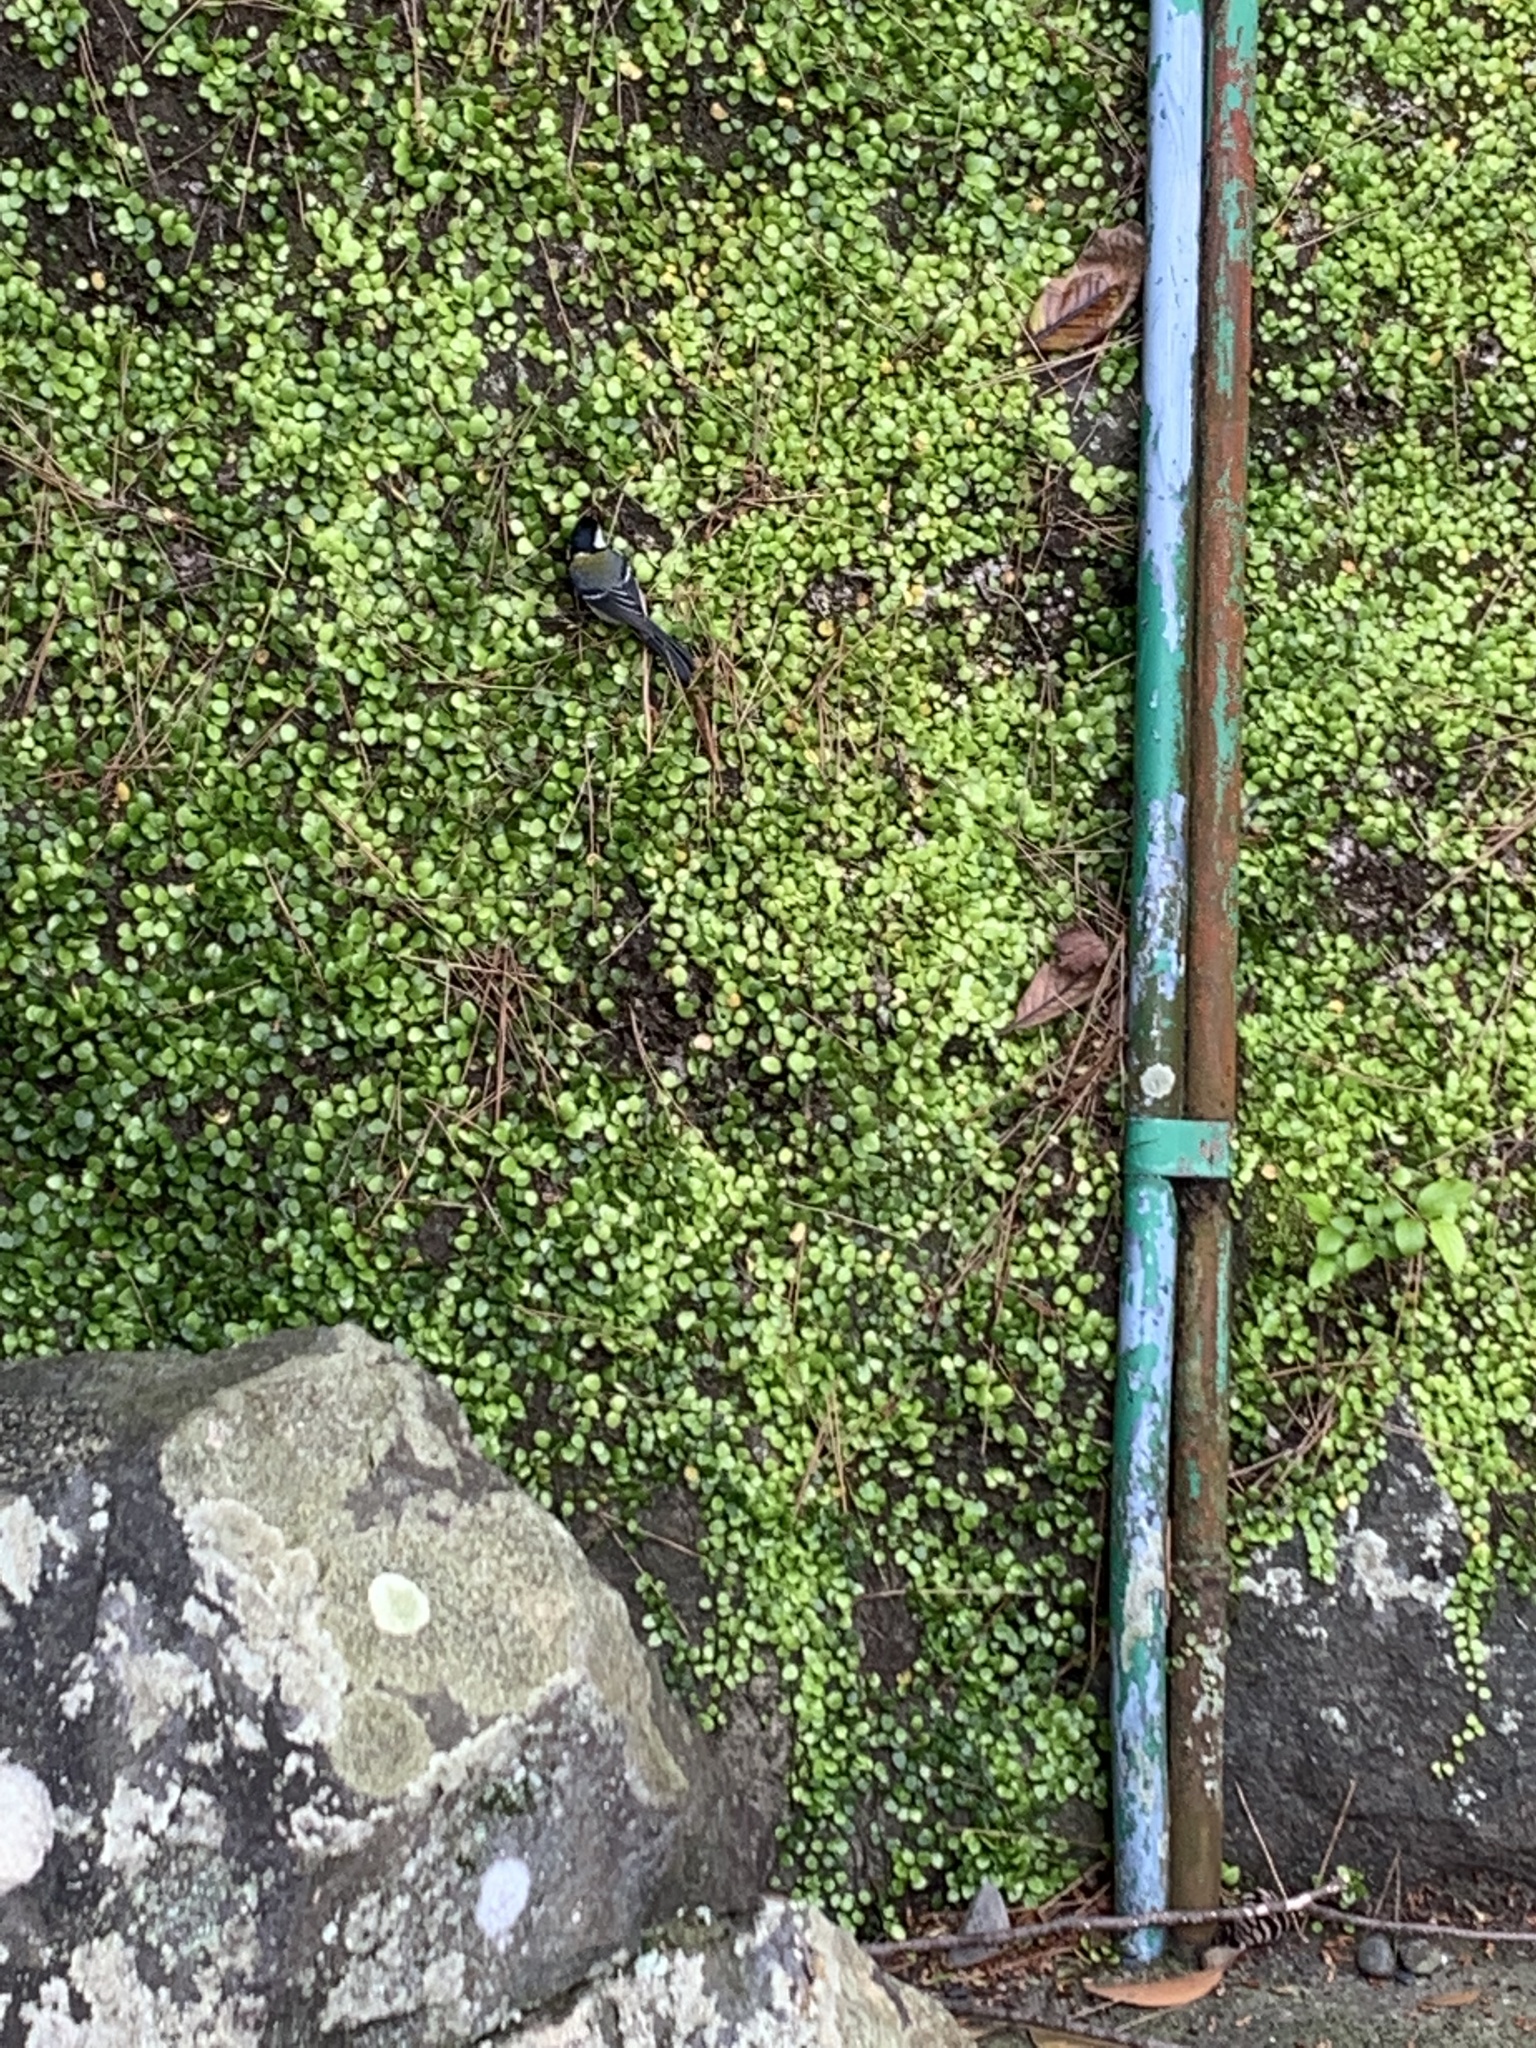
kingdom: Animalia
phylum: Chordata
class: Aves
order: Passeriformes
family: Paridae
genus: Parus
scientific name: Parus minor
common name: Japanese tit
